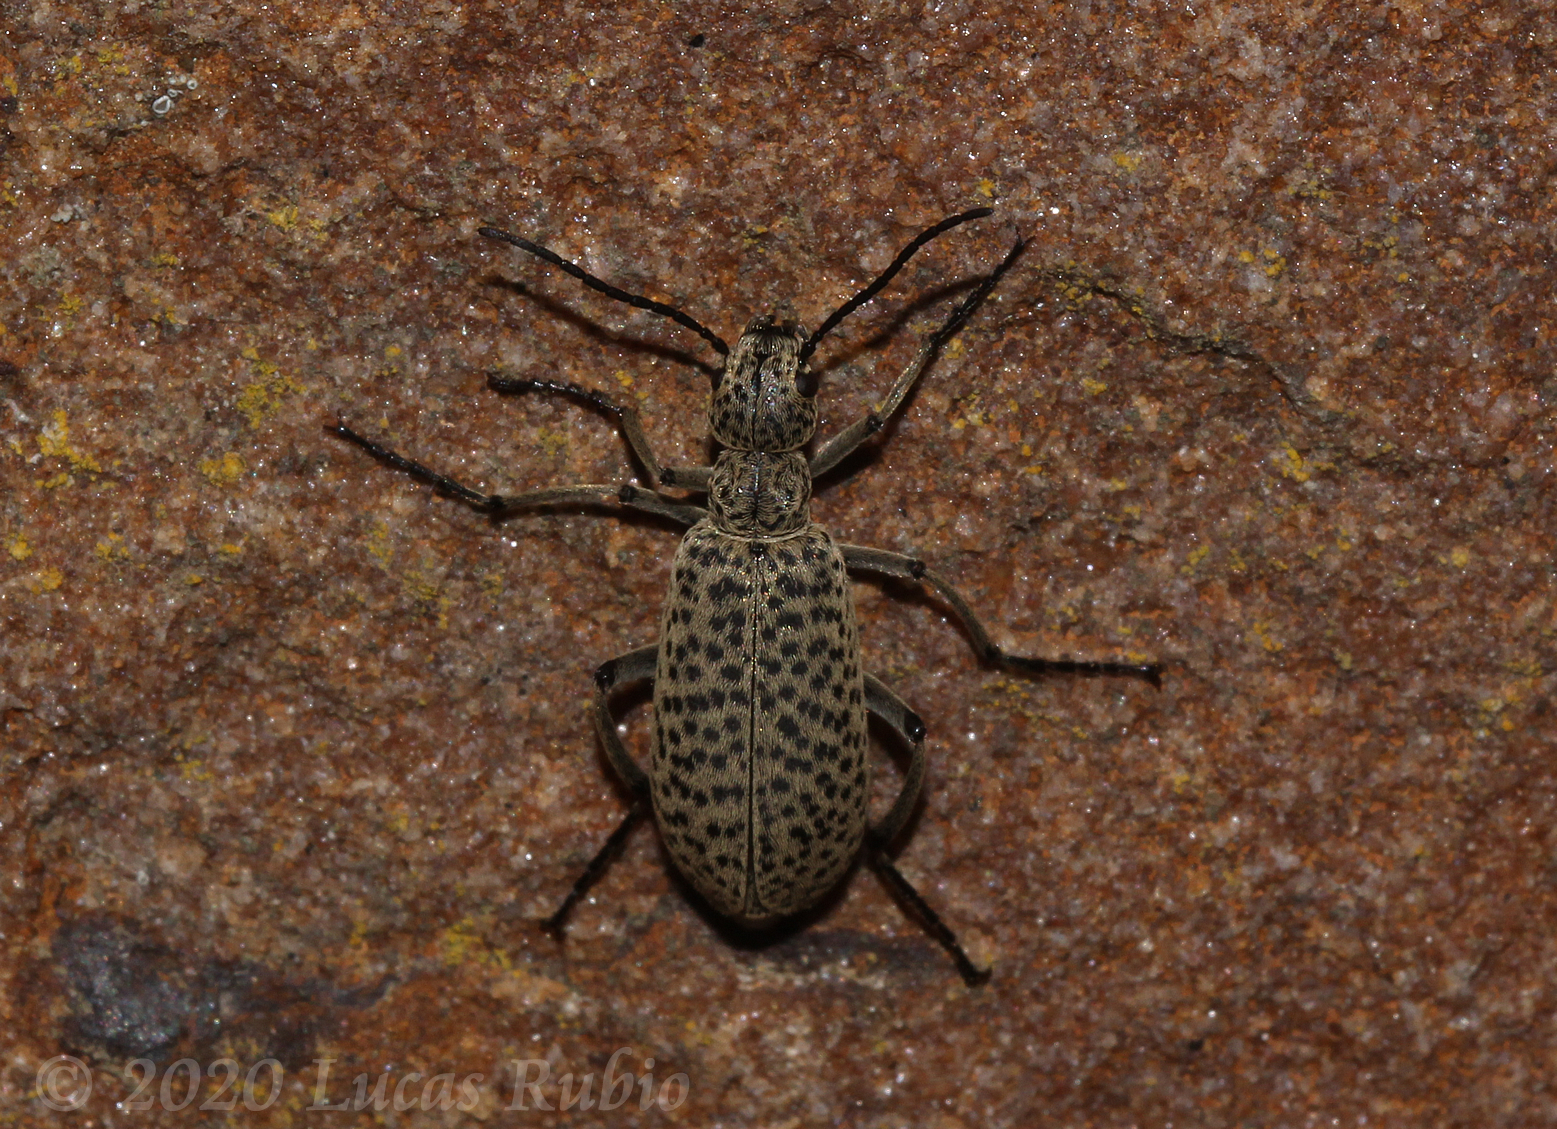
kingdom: Animalia
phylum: Arthropoda
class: Insecta
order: Coleoptera
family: Meloidae
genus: Epicauta
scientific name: Epicauta
